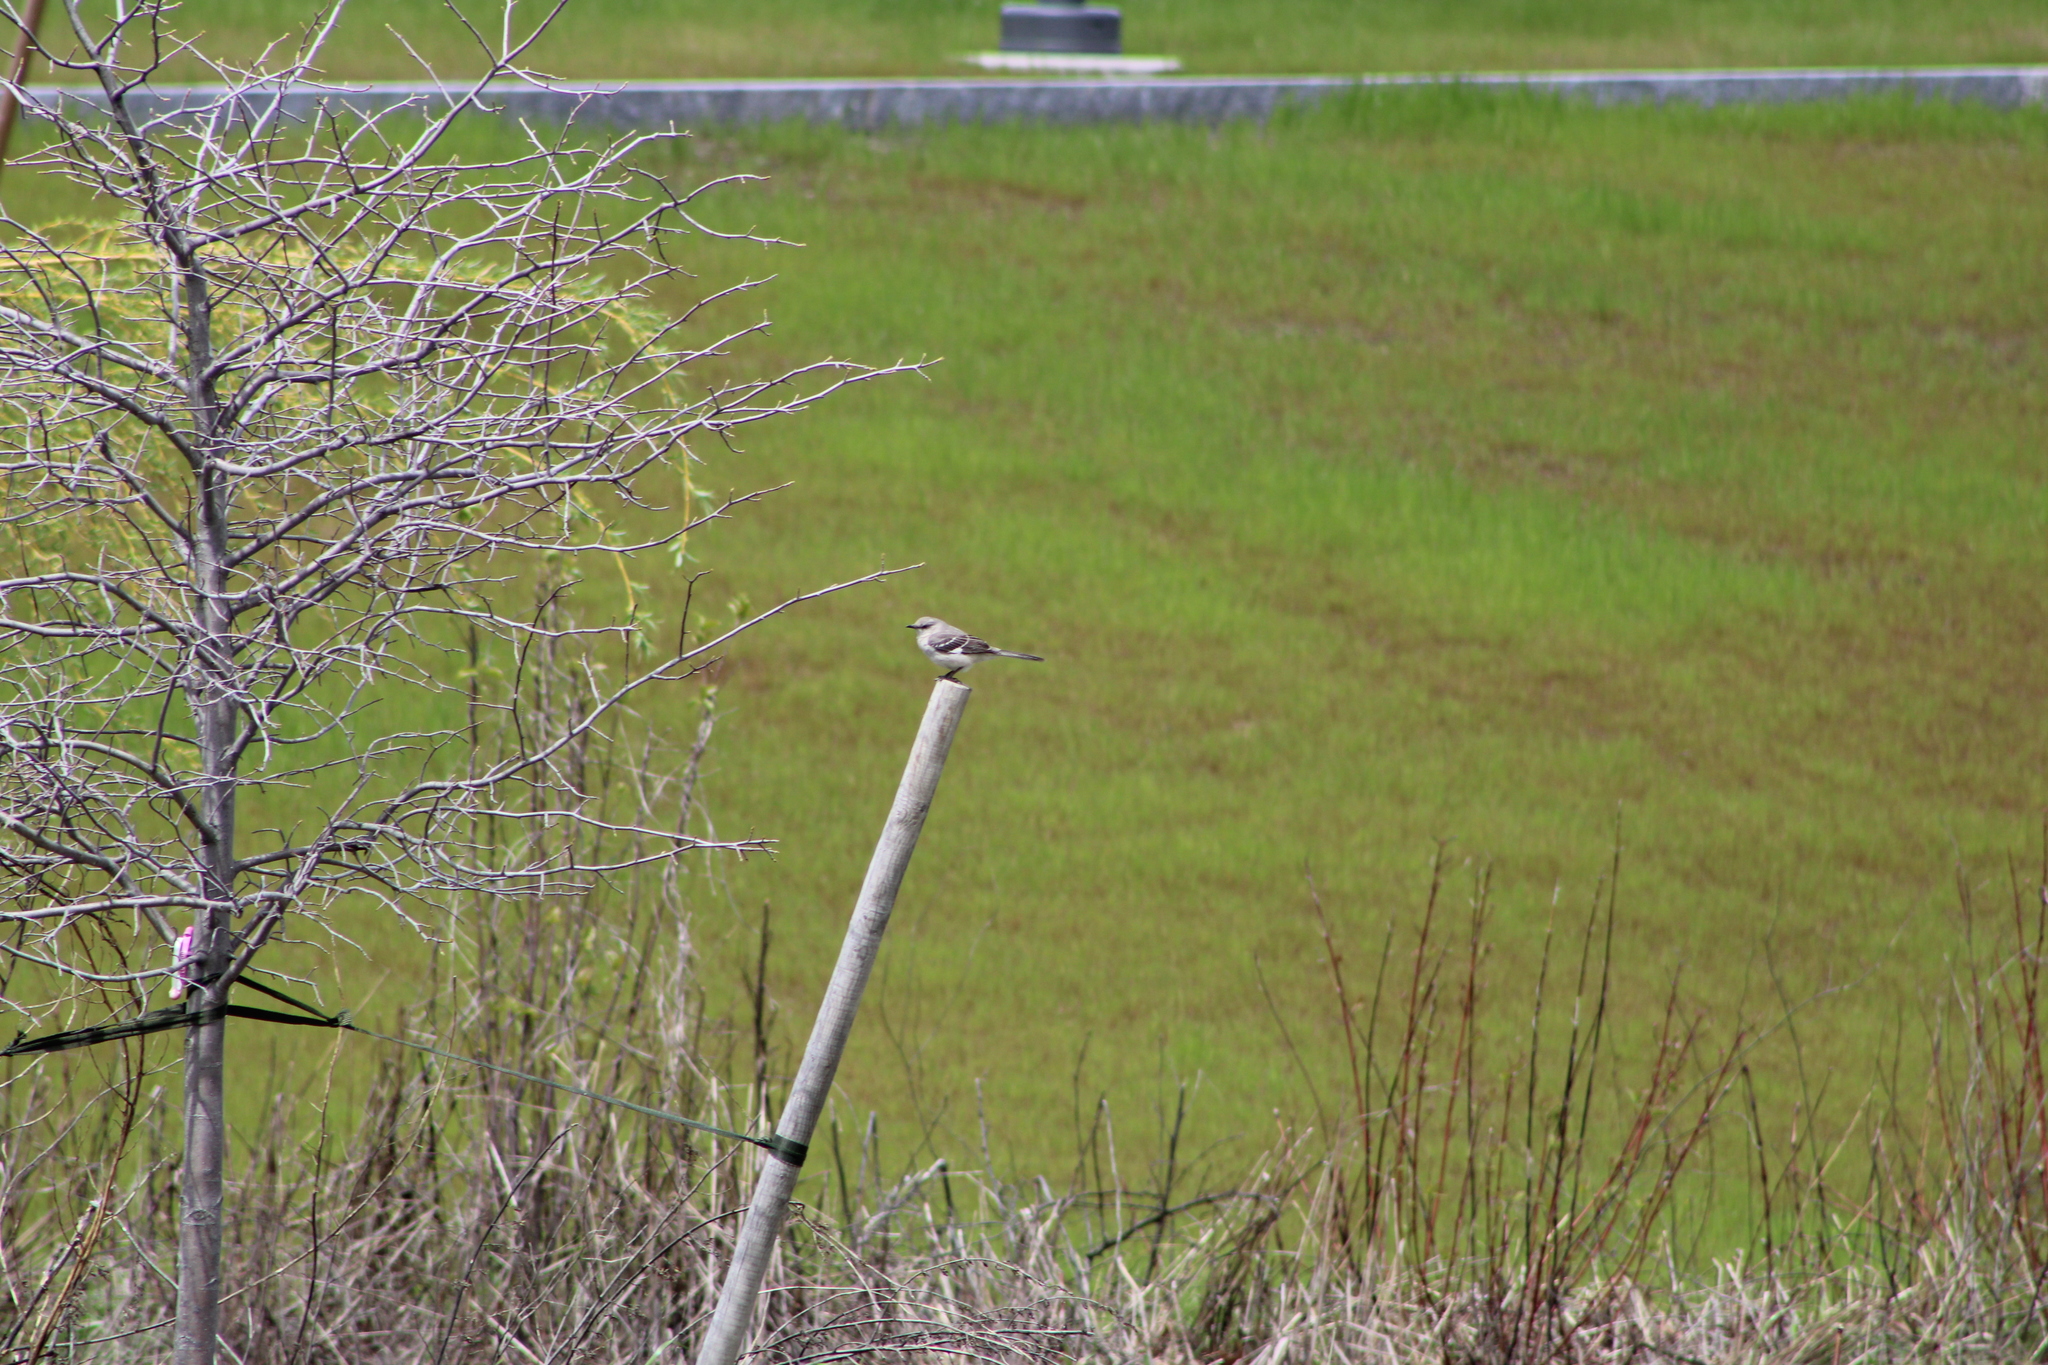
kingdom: Animalia
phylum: Chordata
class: Aves
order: Passeriformes
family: Mimidae
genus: Mimus
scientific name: Mimus polyglottos
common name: Northern mockingbird
